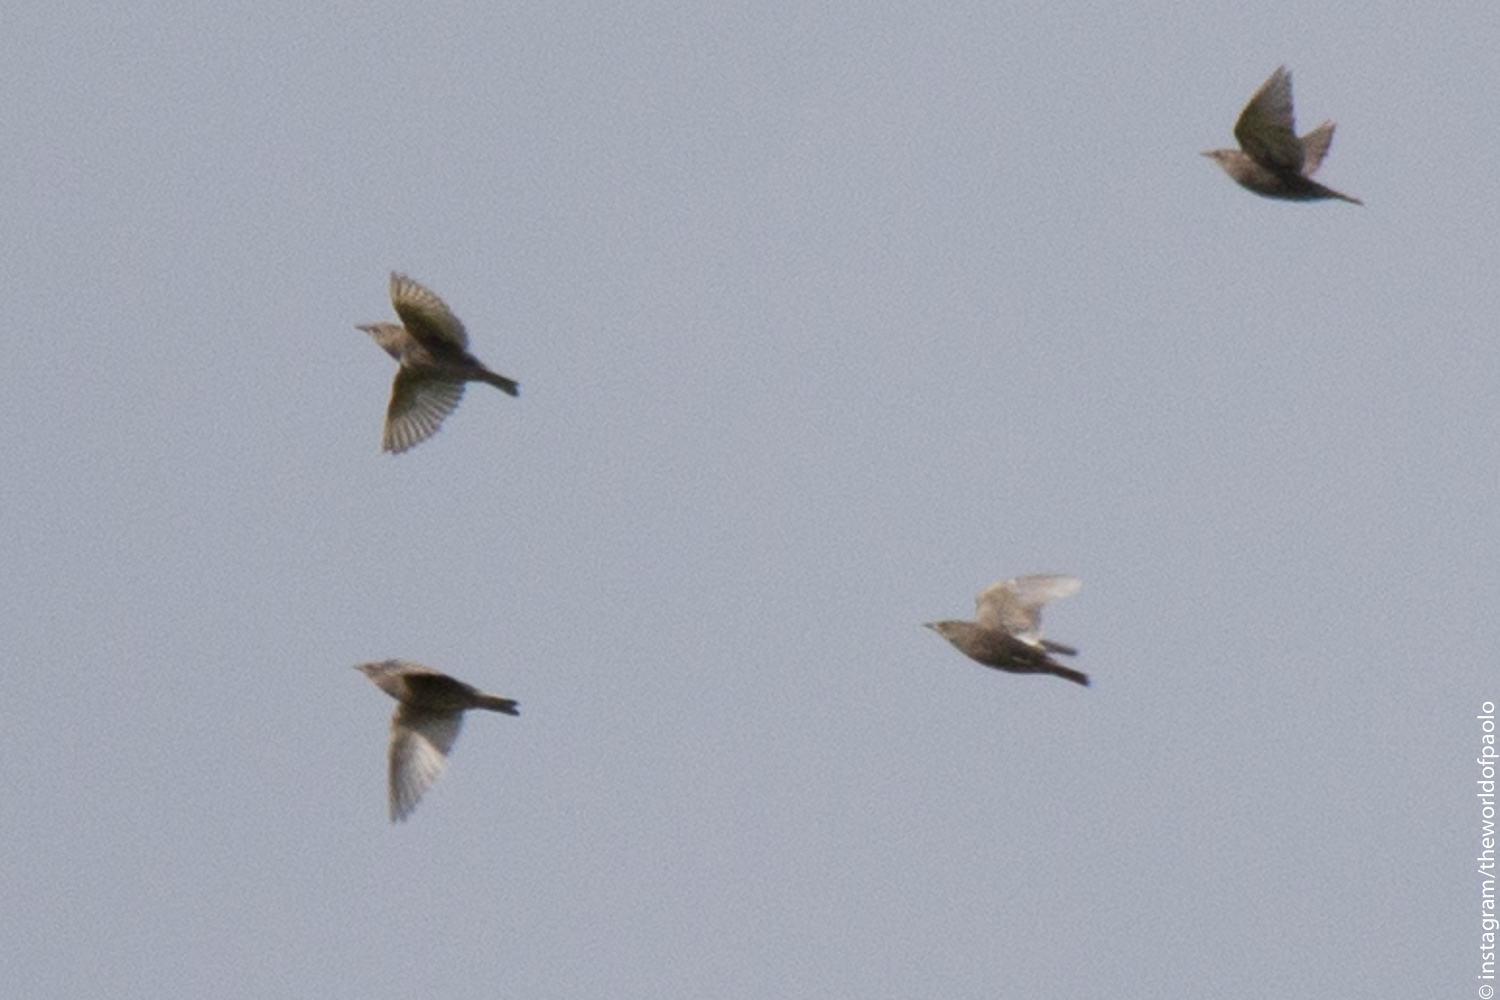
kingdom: Animalia
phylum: Chordata
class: Aves
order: Passeriformes
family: Sturnidae
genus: Sturnus
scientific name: Sturnus vulgaris
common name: Common starling
